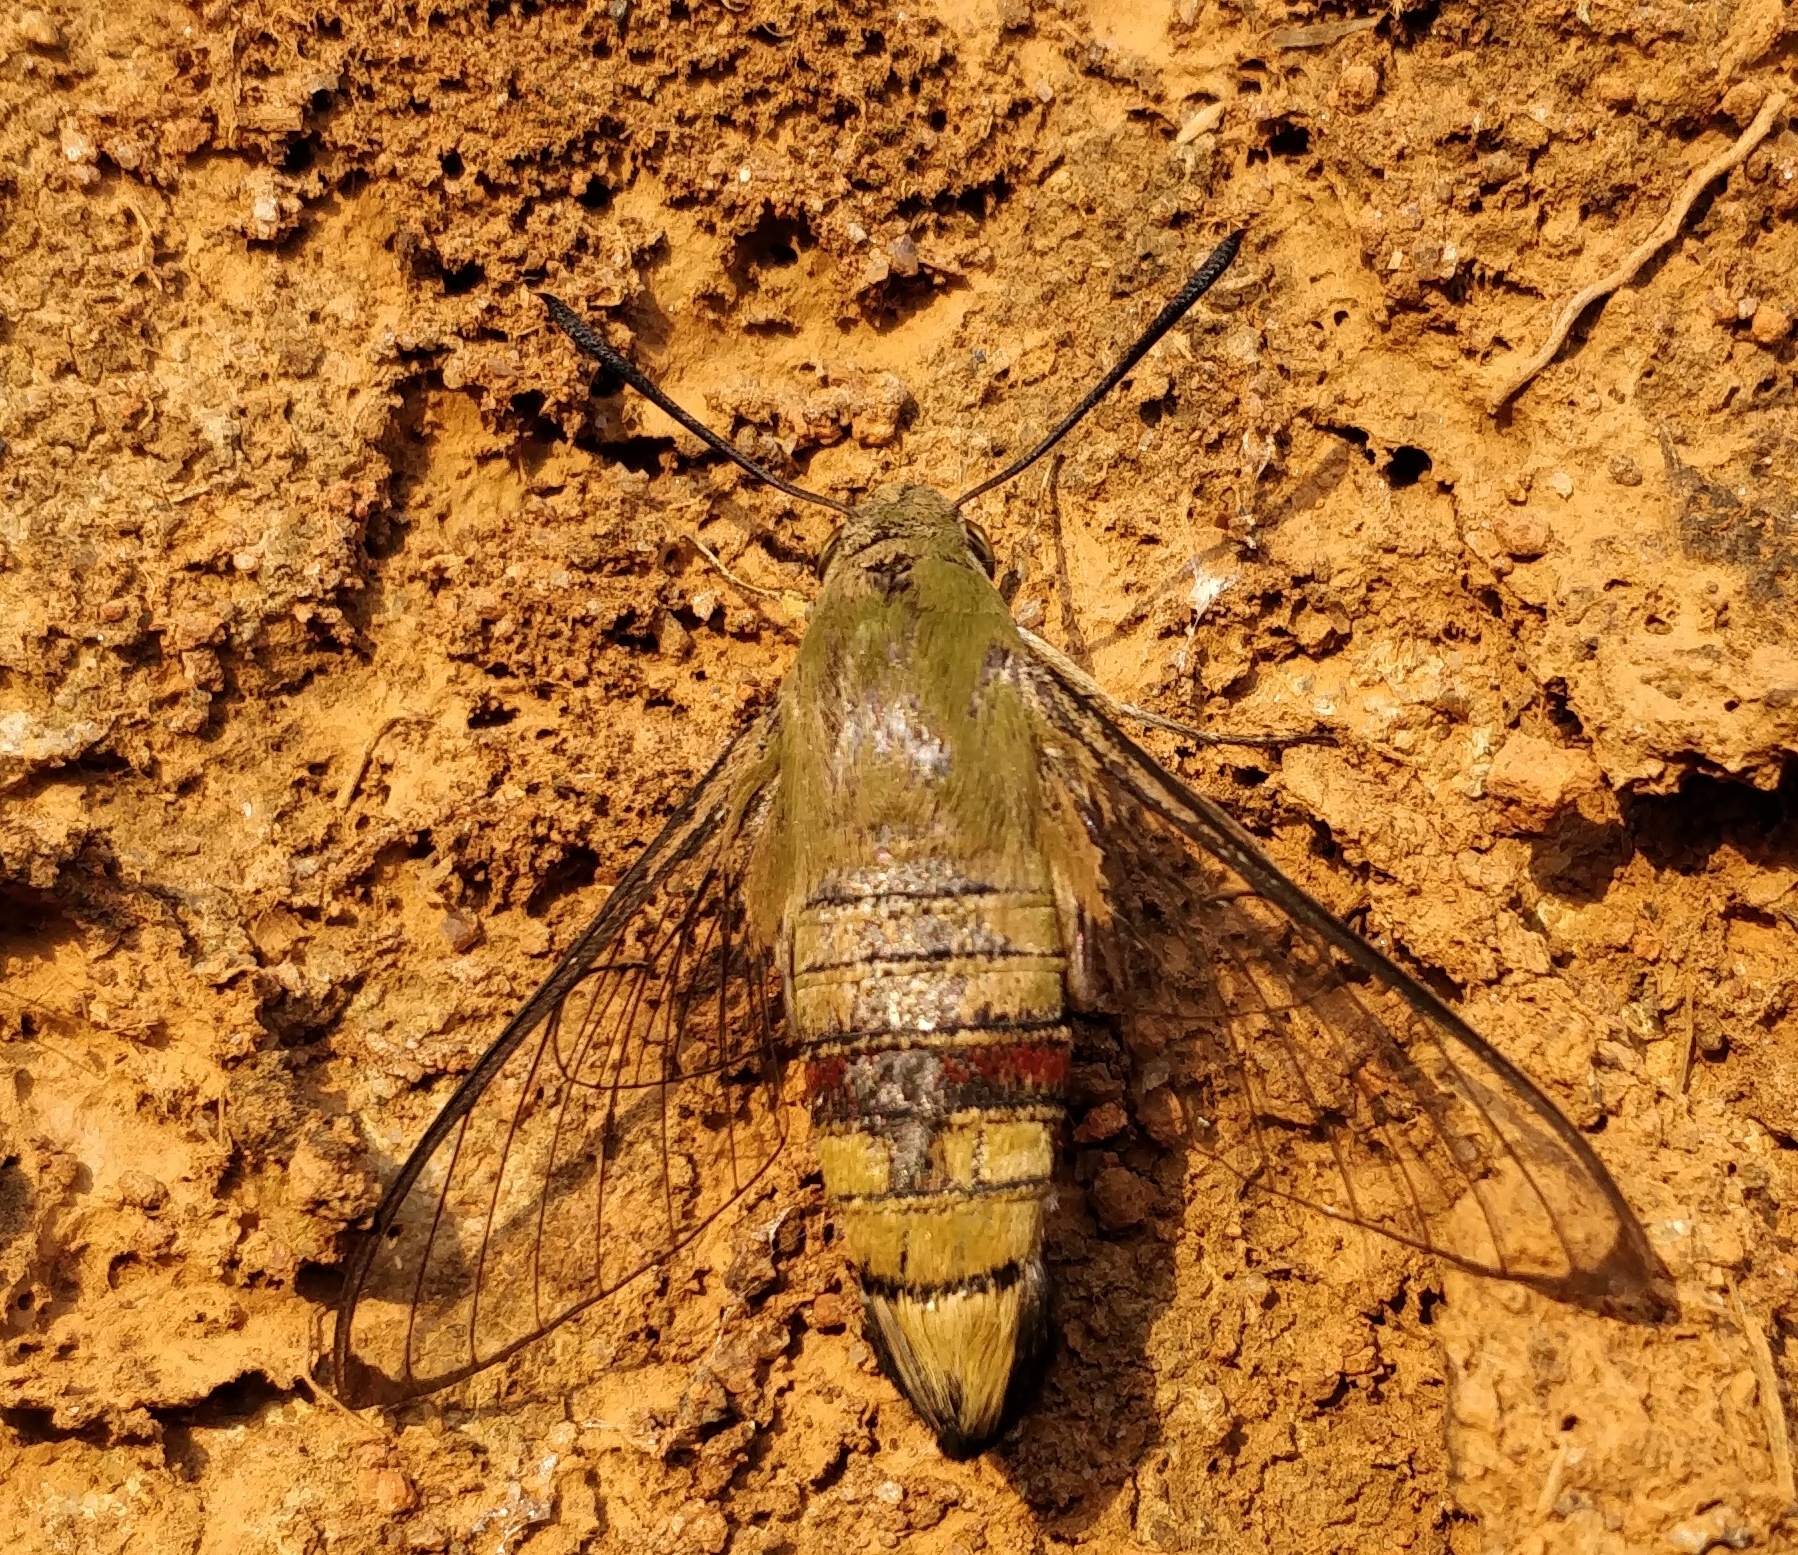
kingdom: Animalia
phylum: Arthropoda
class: Insecta
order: Lepidoptera
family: Sphingidae
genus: Cephonodes
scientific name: Cephonodes hylas
